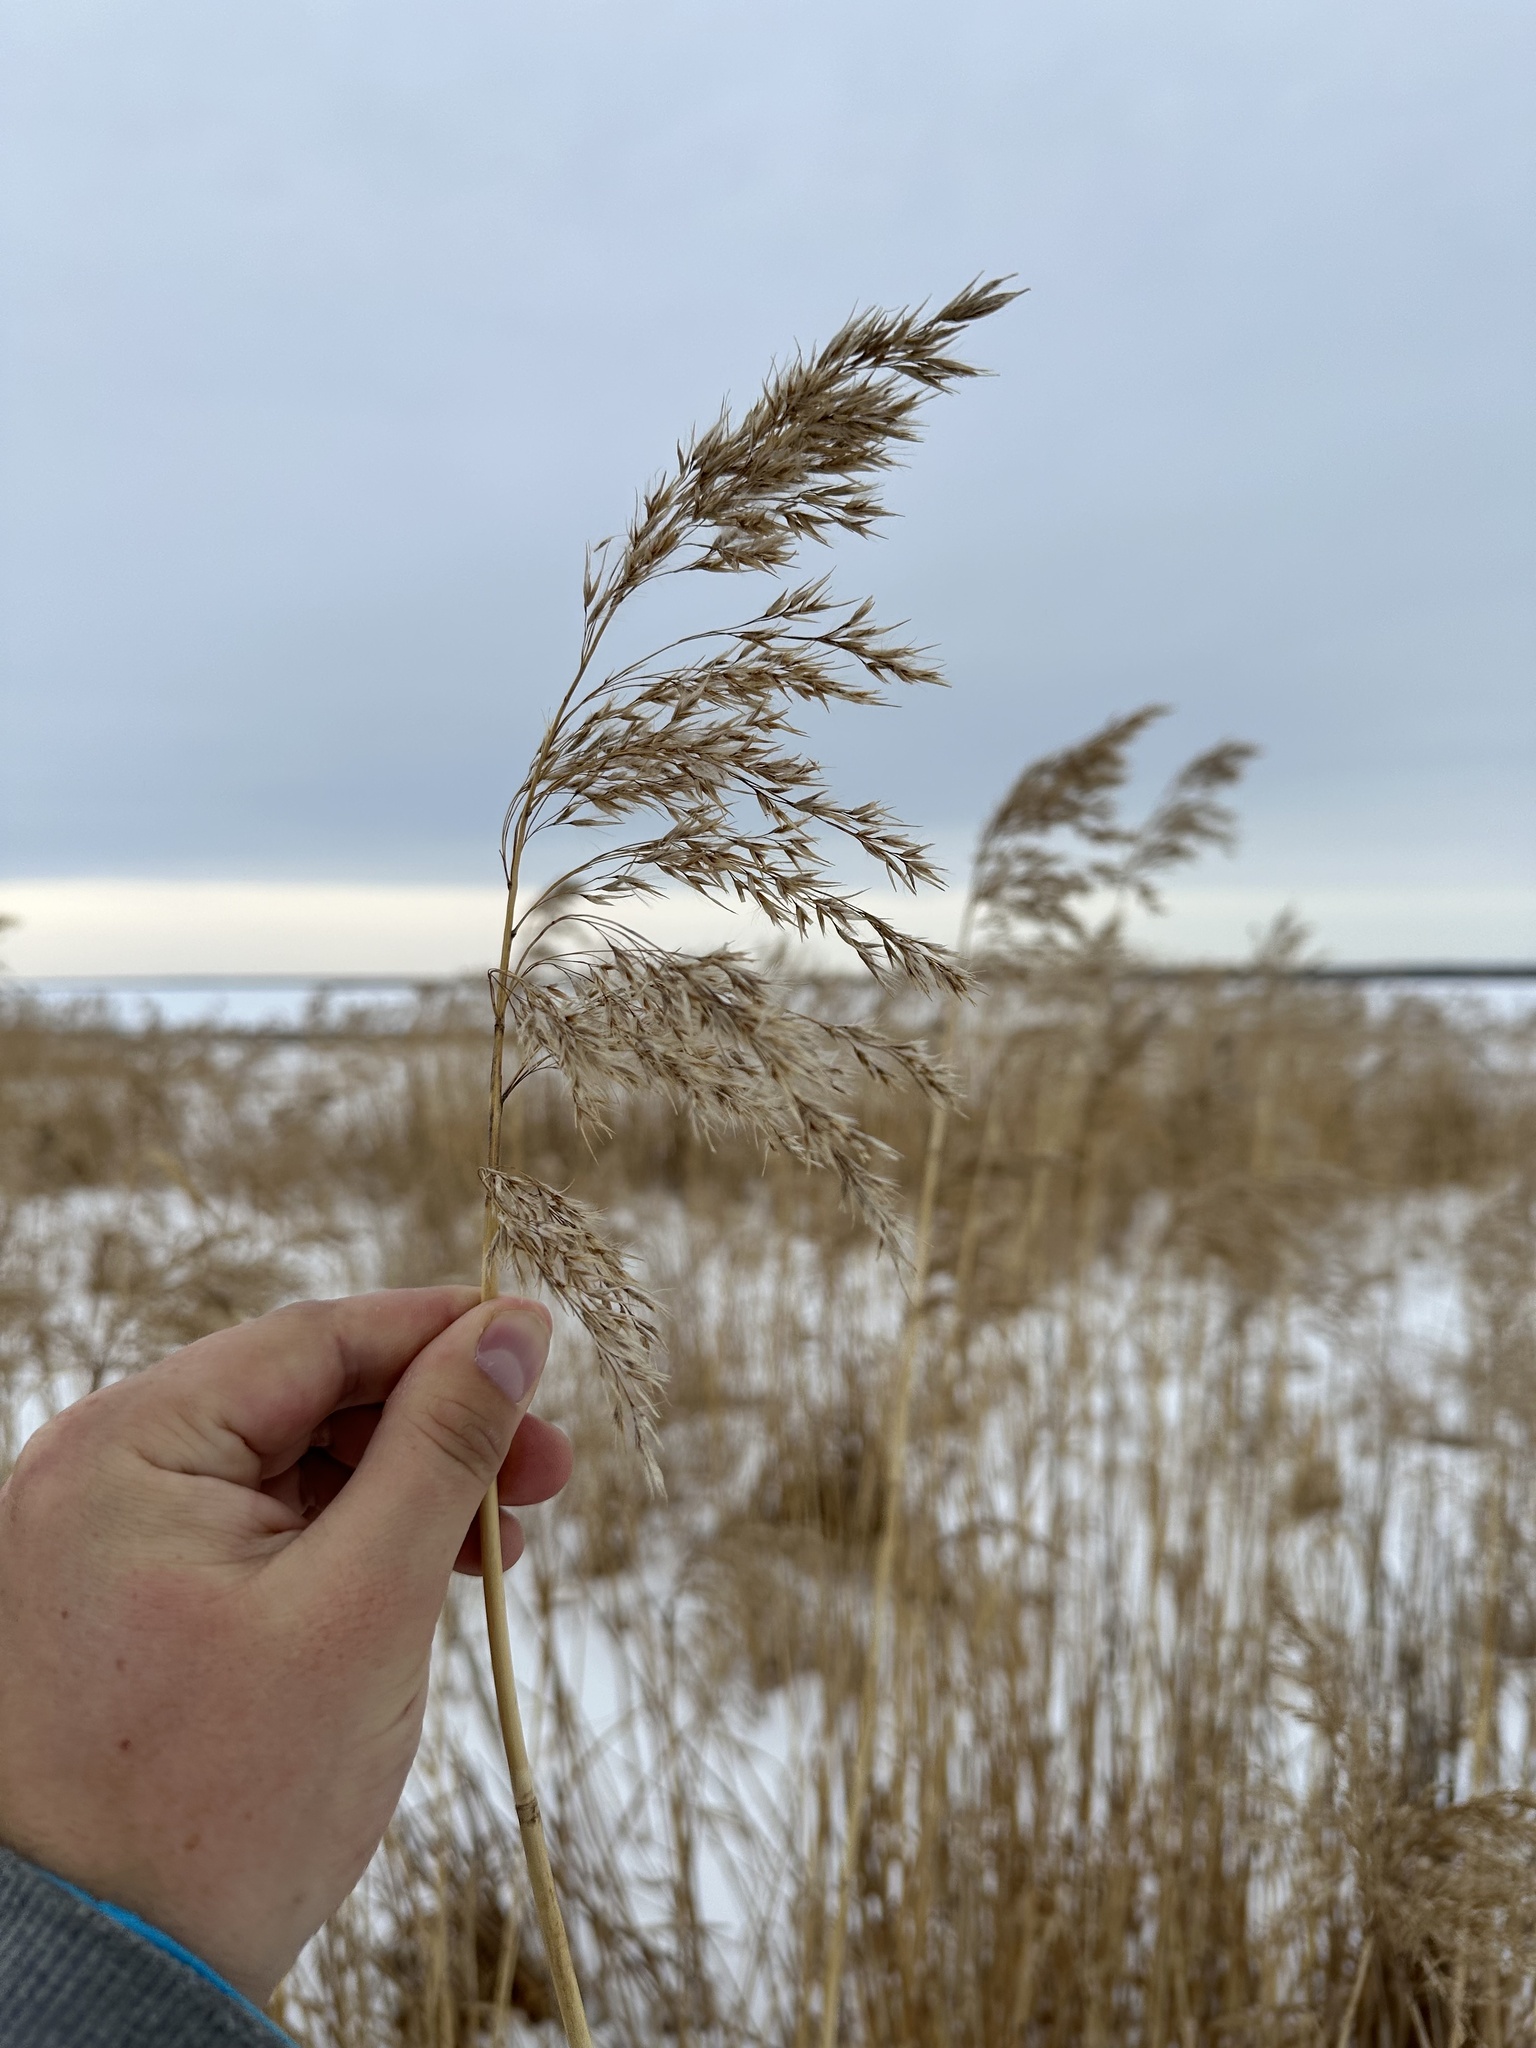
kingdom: Plantae
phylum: Tracheophyta
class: Liliopsida
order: Poales
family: Poaceae
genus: Phragmites
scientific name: Phragmites australis
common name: Common reed
